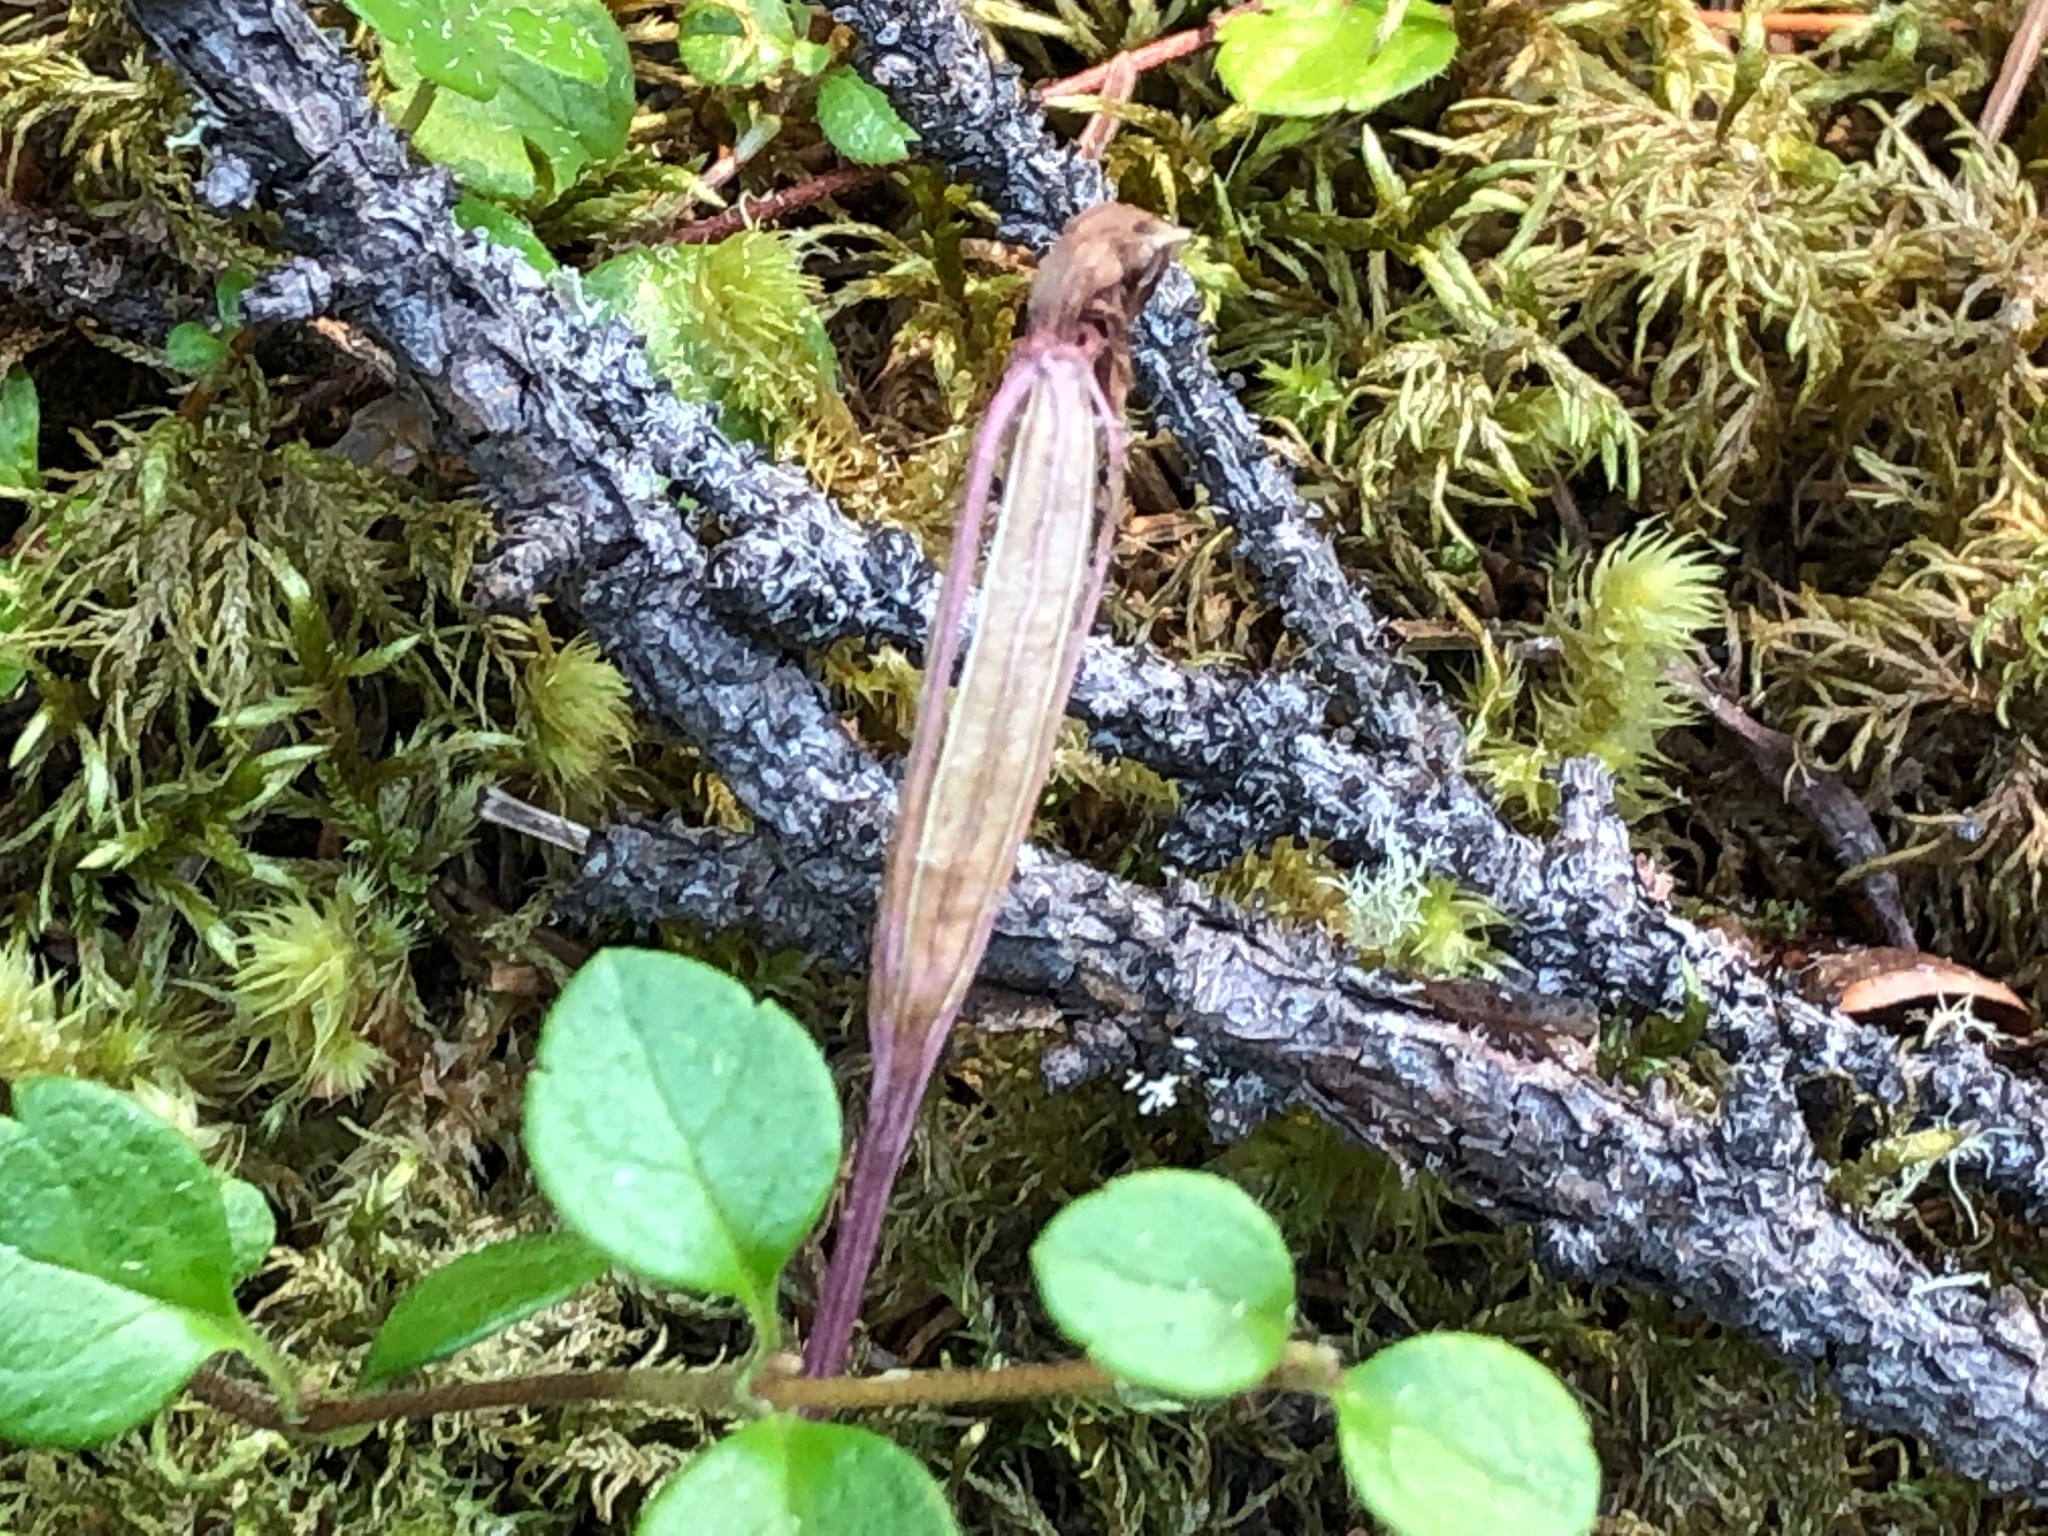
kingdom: Plantae
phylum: Tracheophyta
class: Liliopsida
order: Asparagales
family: Orchidaceae
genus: Calypso
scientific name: Calypso bulbosa
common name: Calypso
